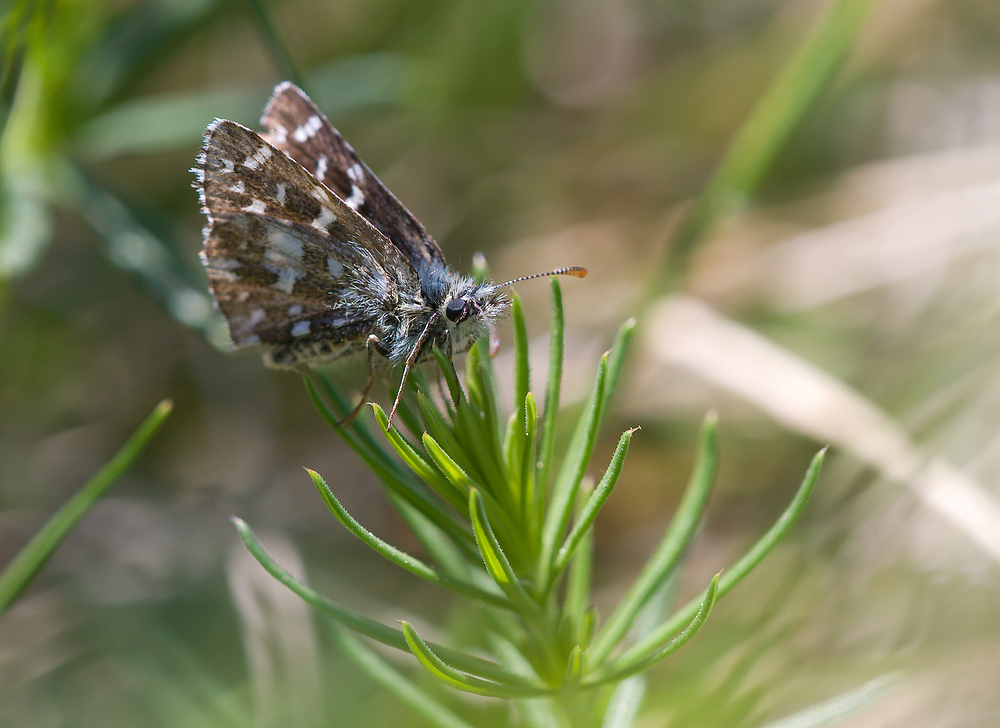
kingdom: Animalia
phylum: Arthropoda
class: Insecta
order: Lepidoptera
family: Hesperiidae
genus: Pyrgus
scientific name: Pyrgus malvoides
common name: Southern grizzled skipper
